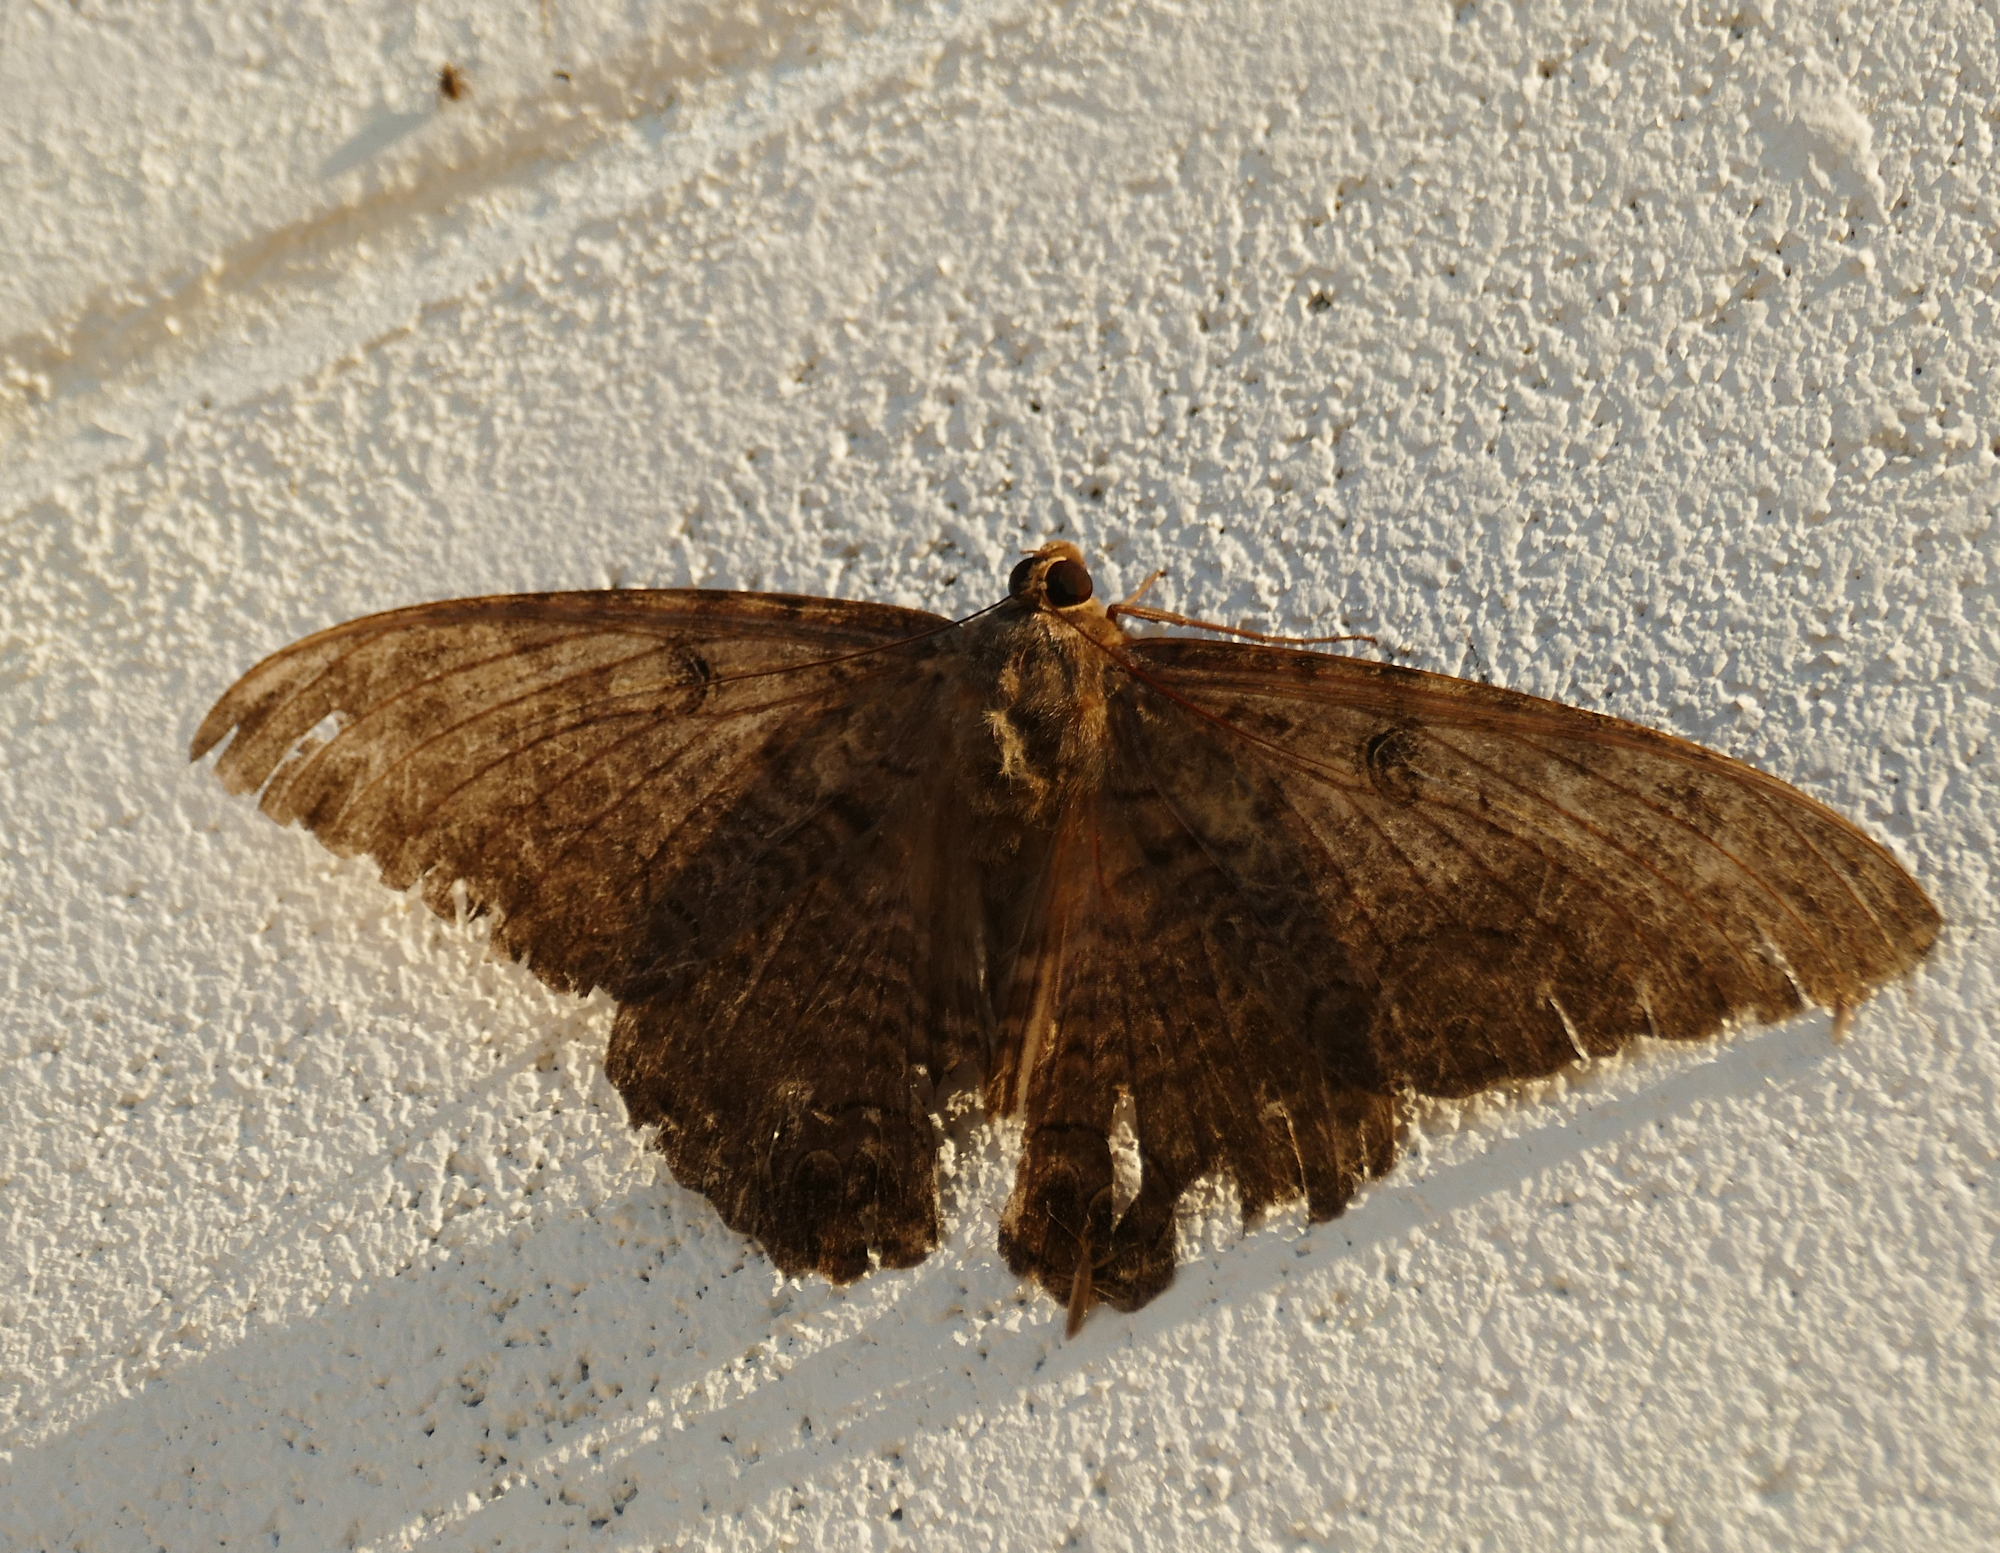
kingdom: Animalia
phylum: Arthropoda
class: Insecta
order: Lepidoptera
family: Erebidae
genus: Ascalapha
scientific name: Ascalapha odorata
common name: Black witch
